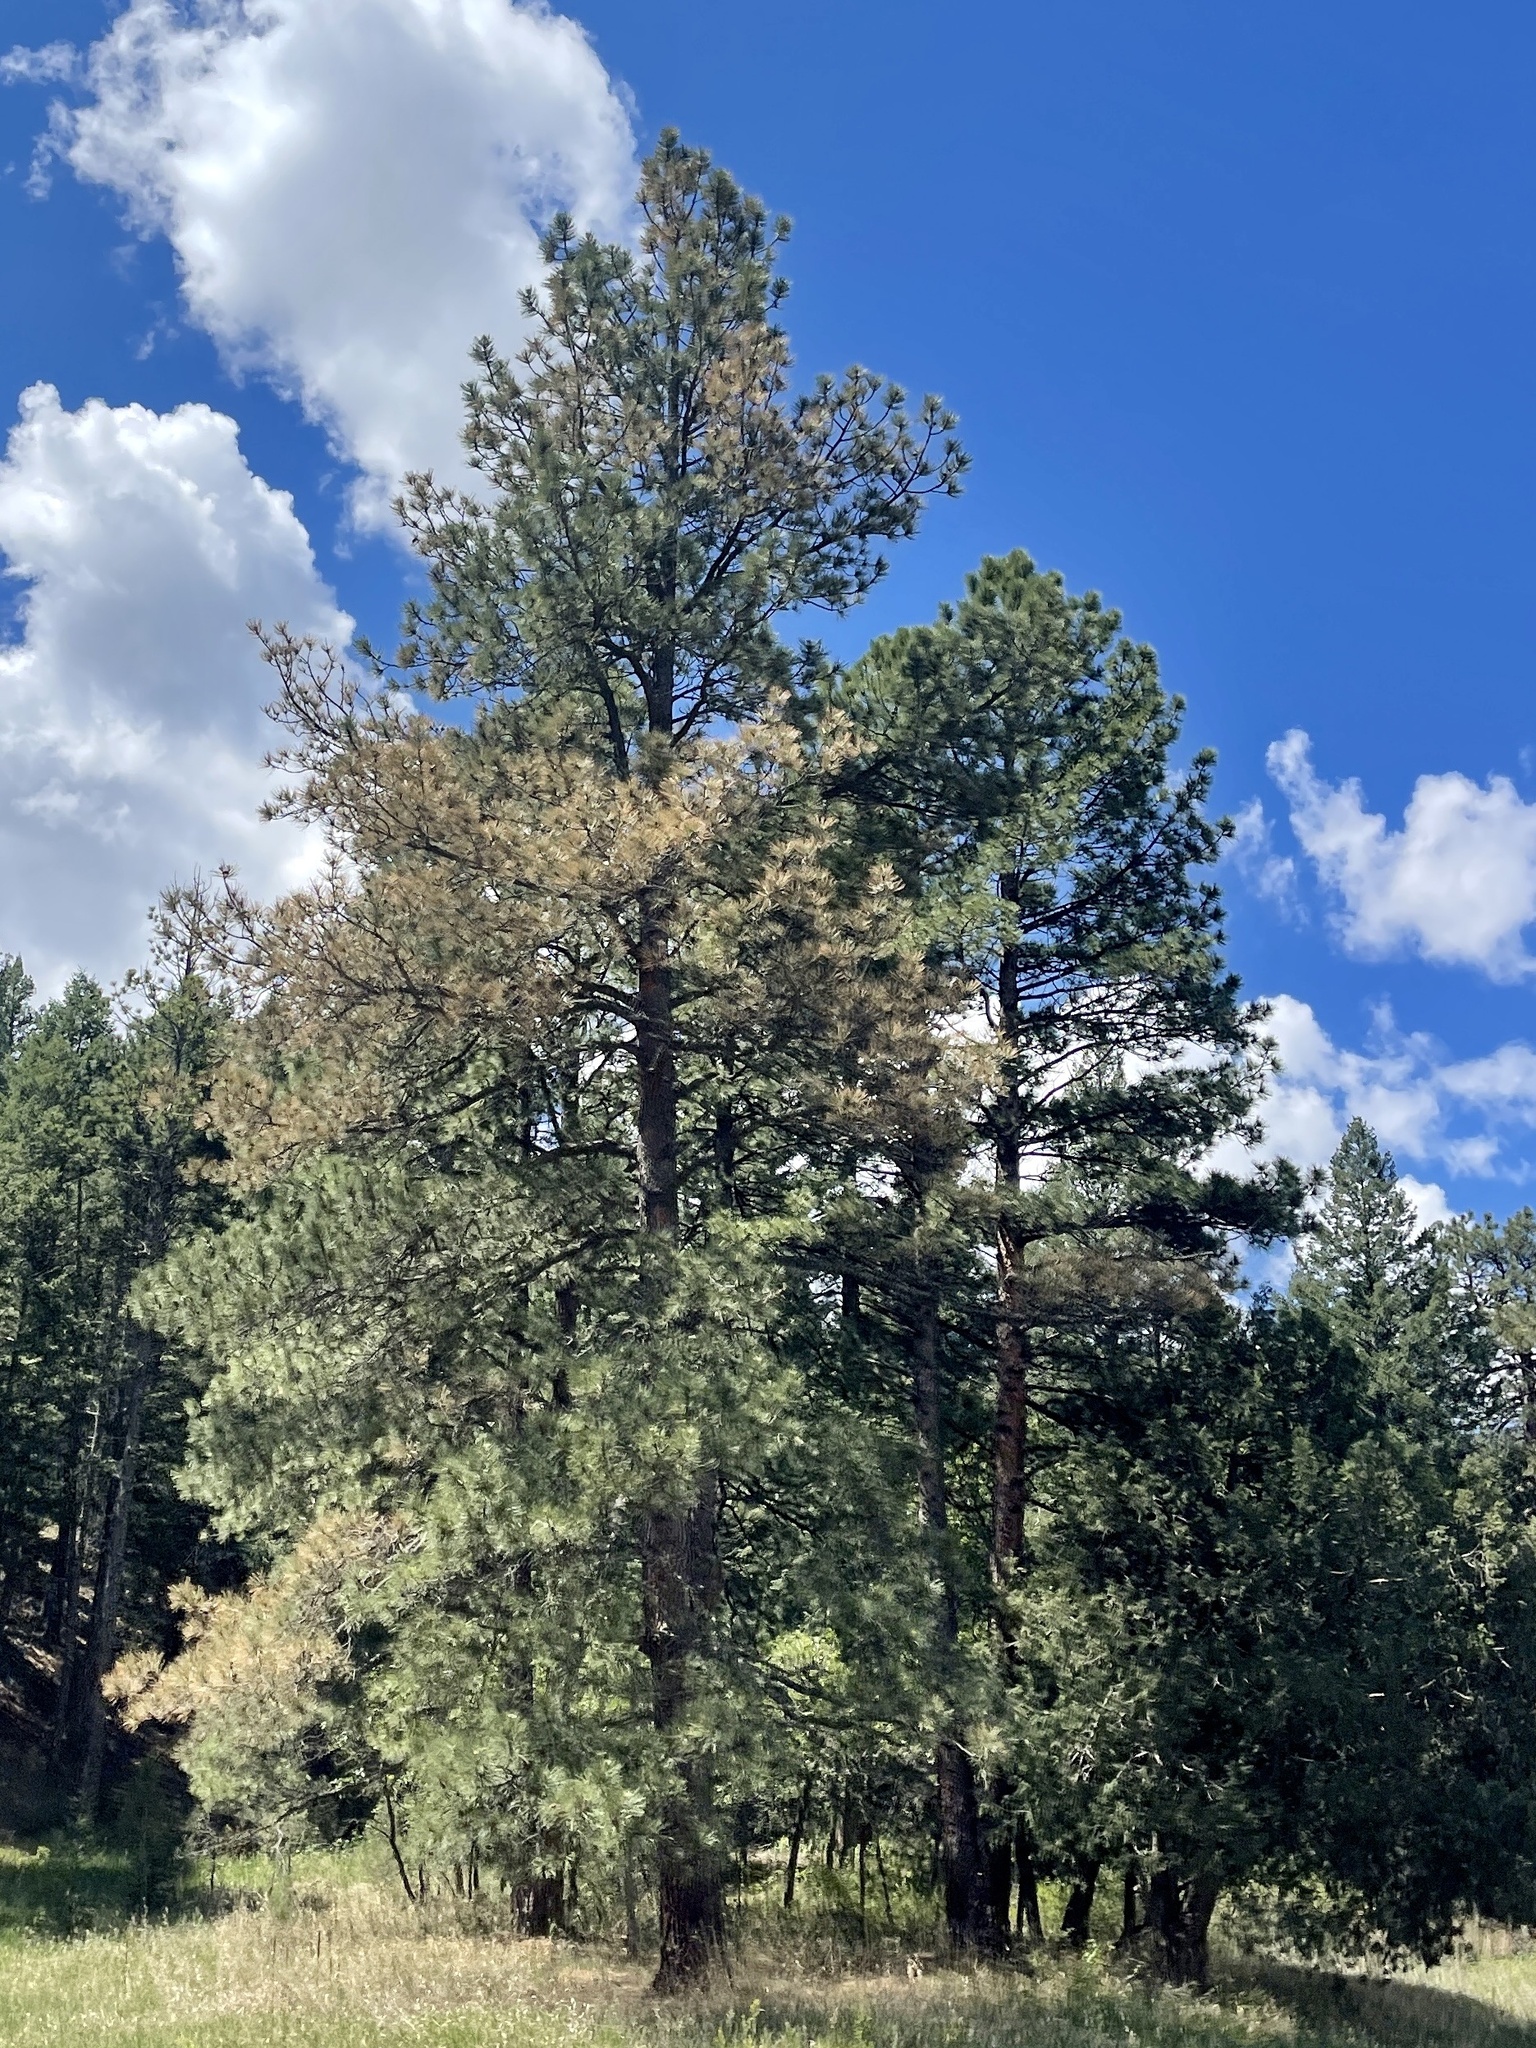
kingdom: Plantae
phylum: Tracheophyta
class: Pinopsida
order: Pinales
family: Pinaceae
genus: Pinus
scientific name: Pinus ponderosa
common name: Western yellow-pine
